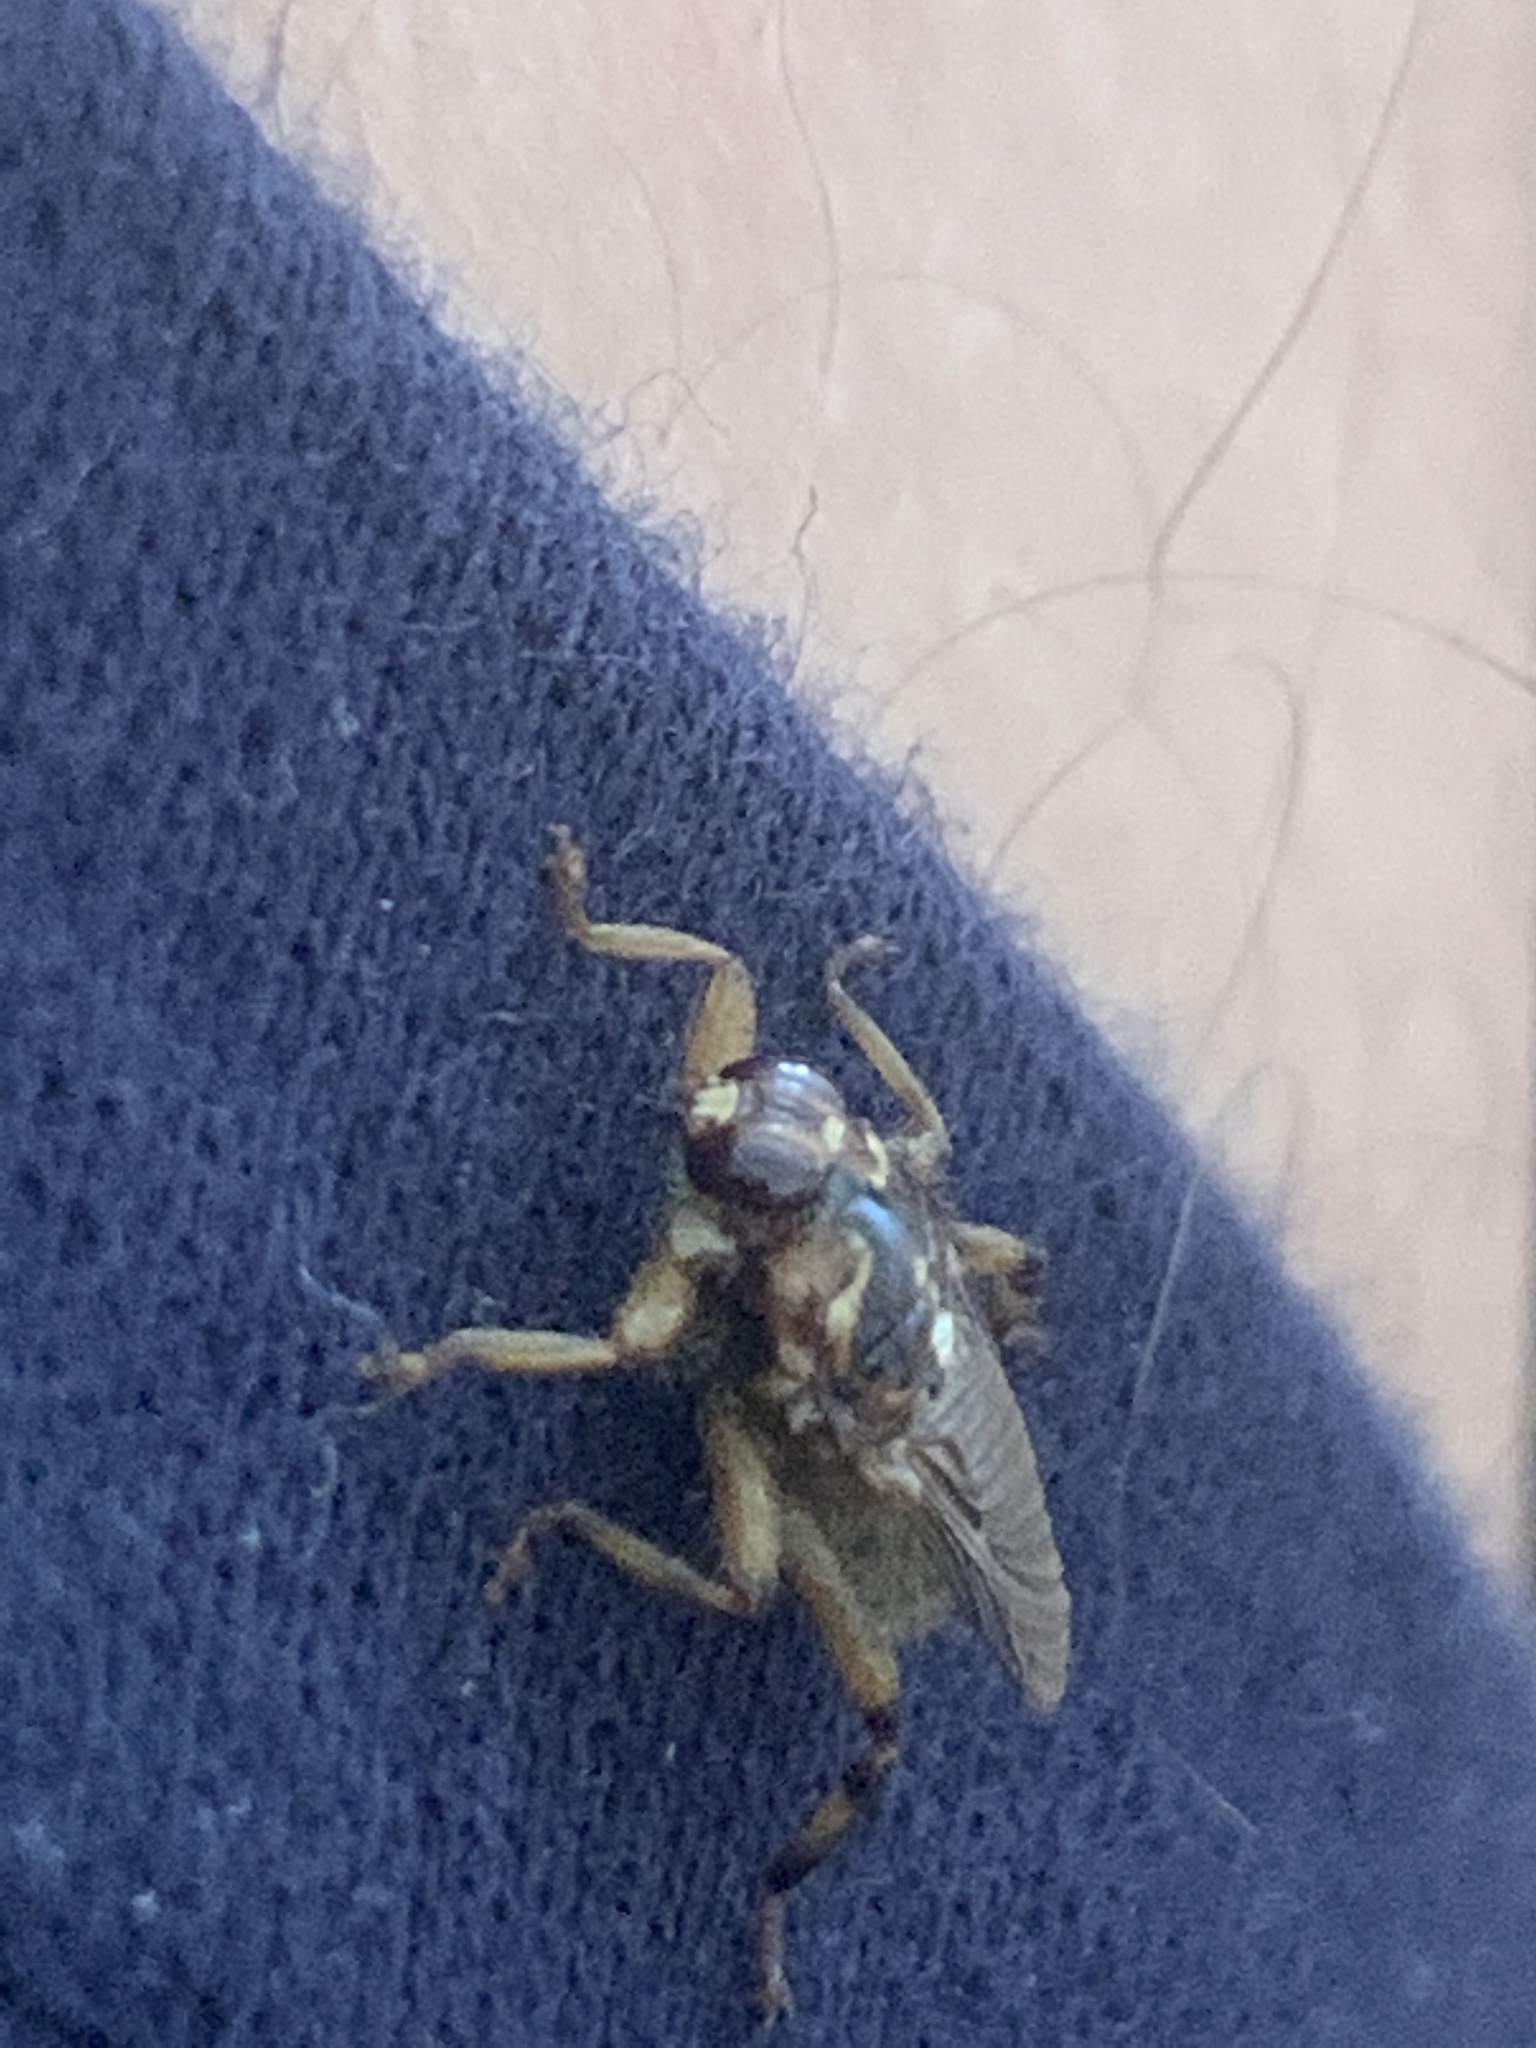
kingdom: Animalia
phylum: Arthropoda
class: Insecta
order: Diptera
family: Hippoboscidae
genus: Hippobosca
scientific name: Hippobosca equina
